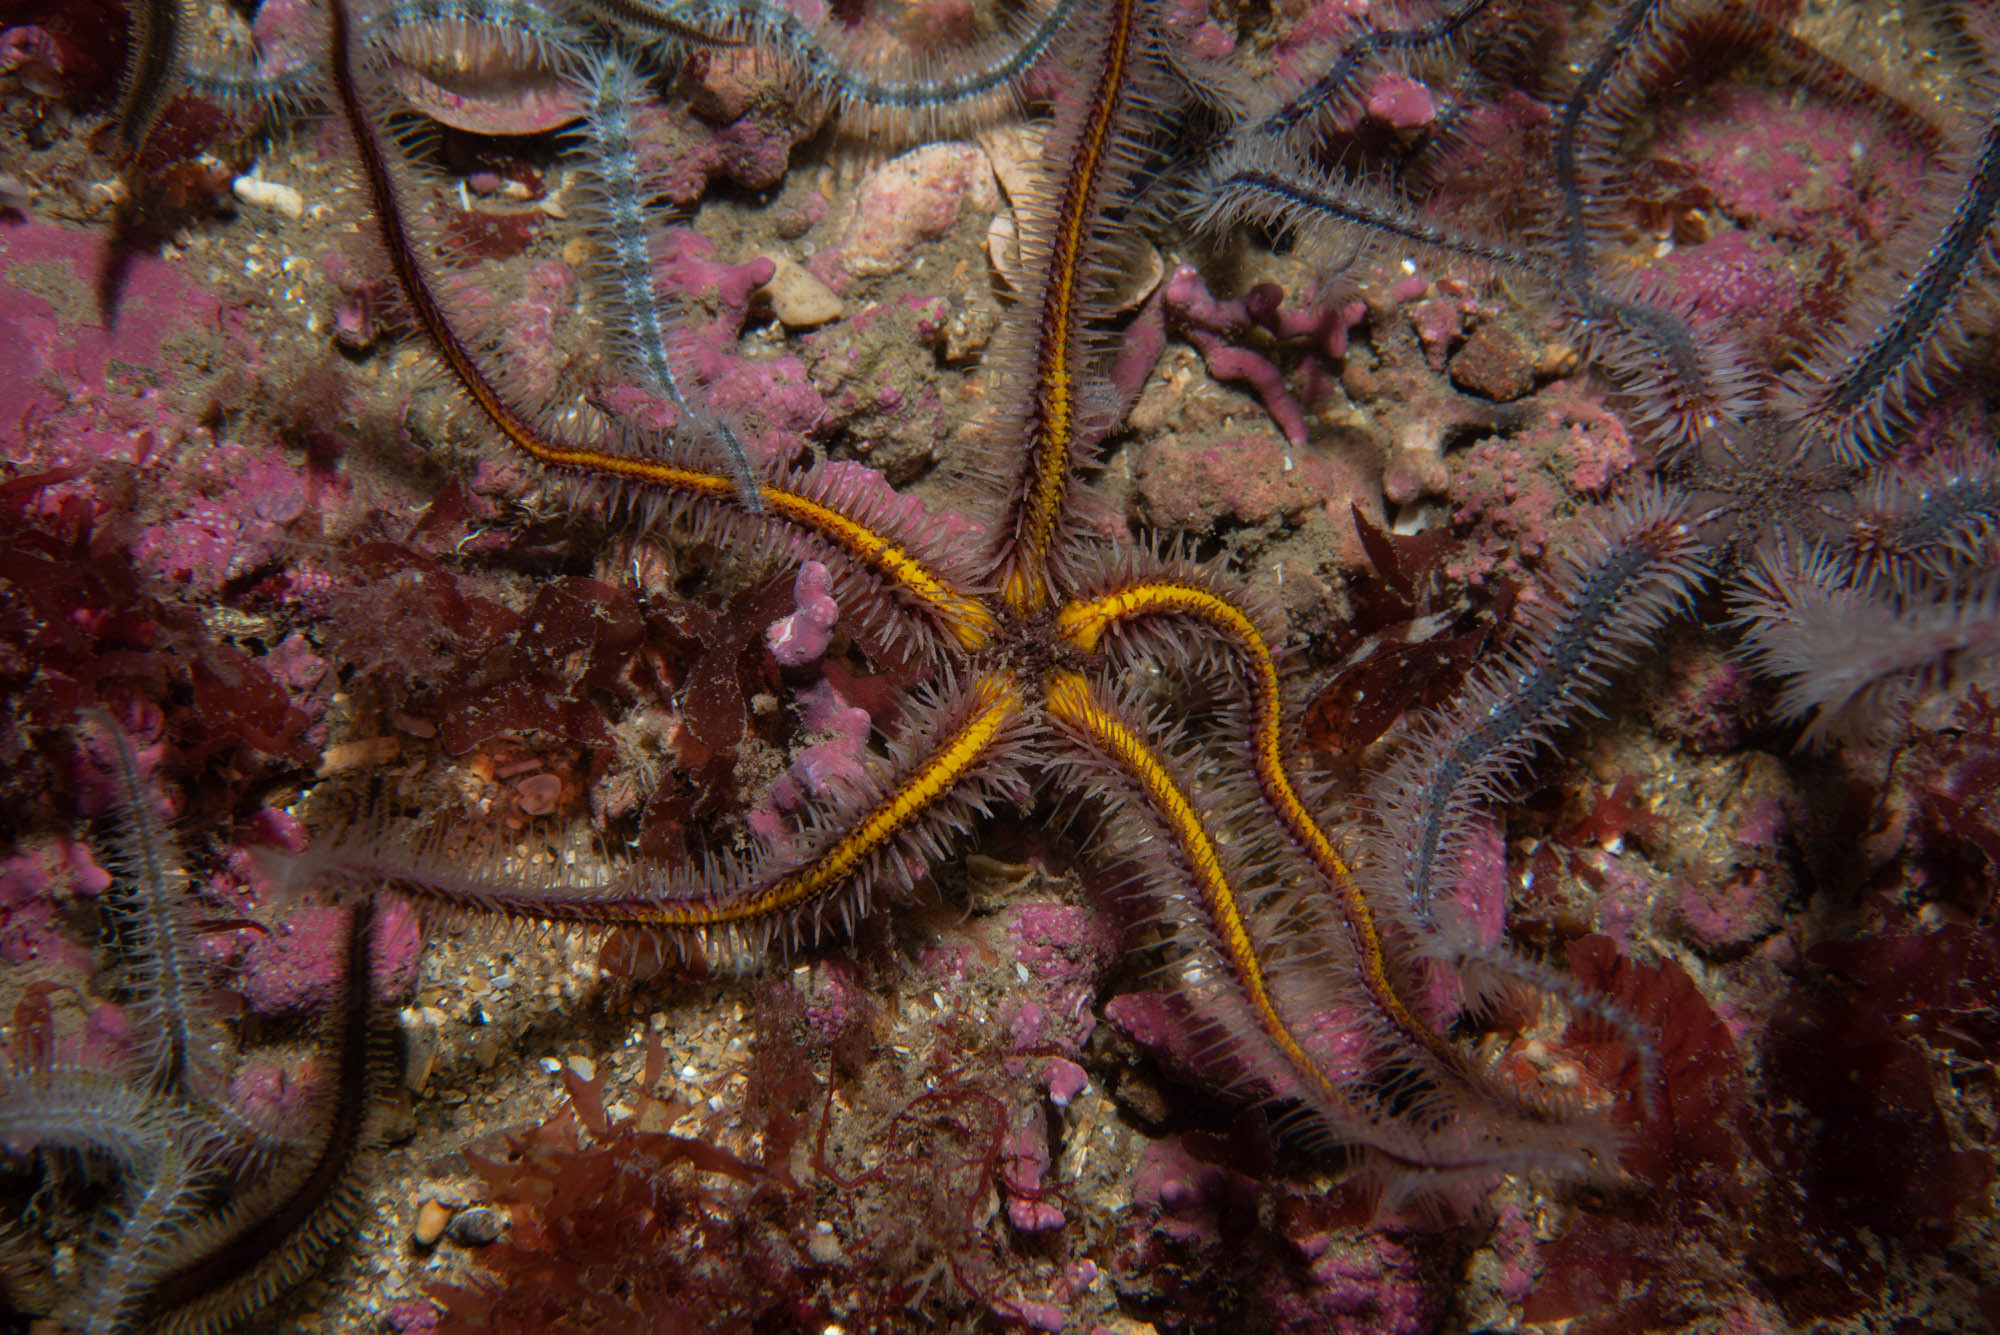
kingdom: Animalia
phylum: Echinodermata
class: Ophiuroidea
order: Amphilepidida
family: Ophiotrichidae
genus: Ophiothrix
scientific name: Ophiothrix fragilis
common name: Common brittlestar
